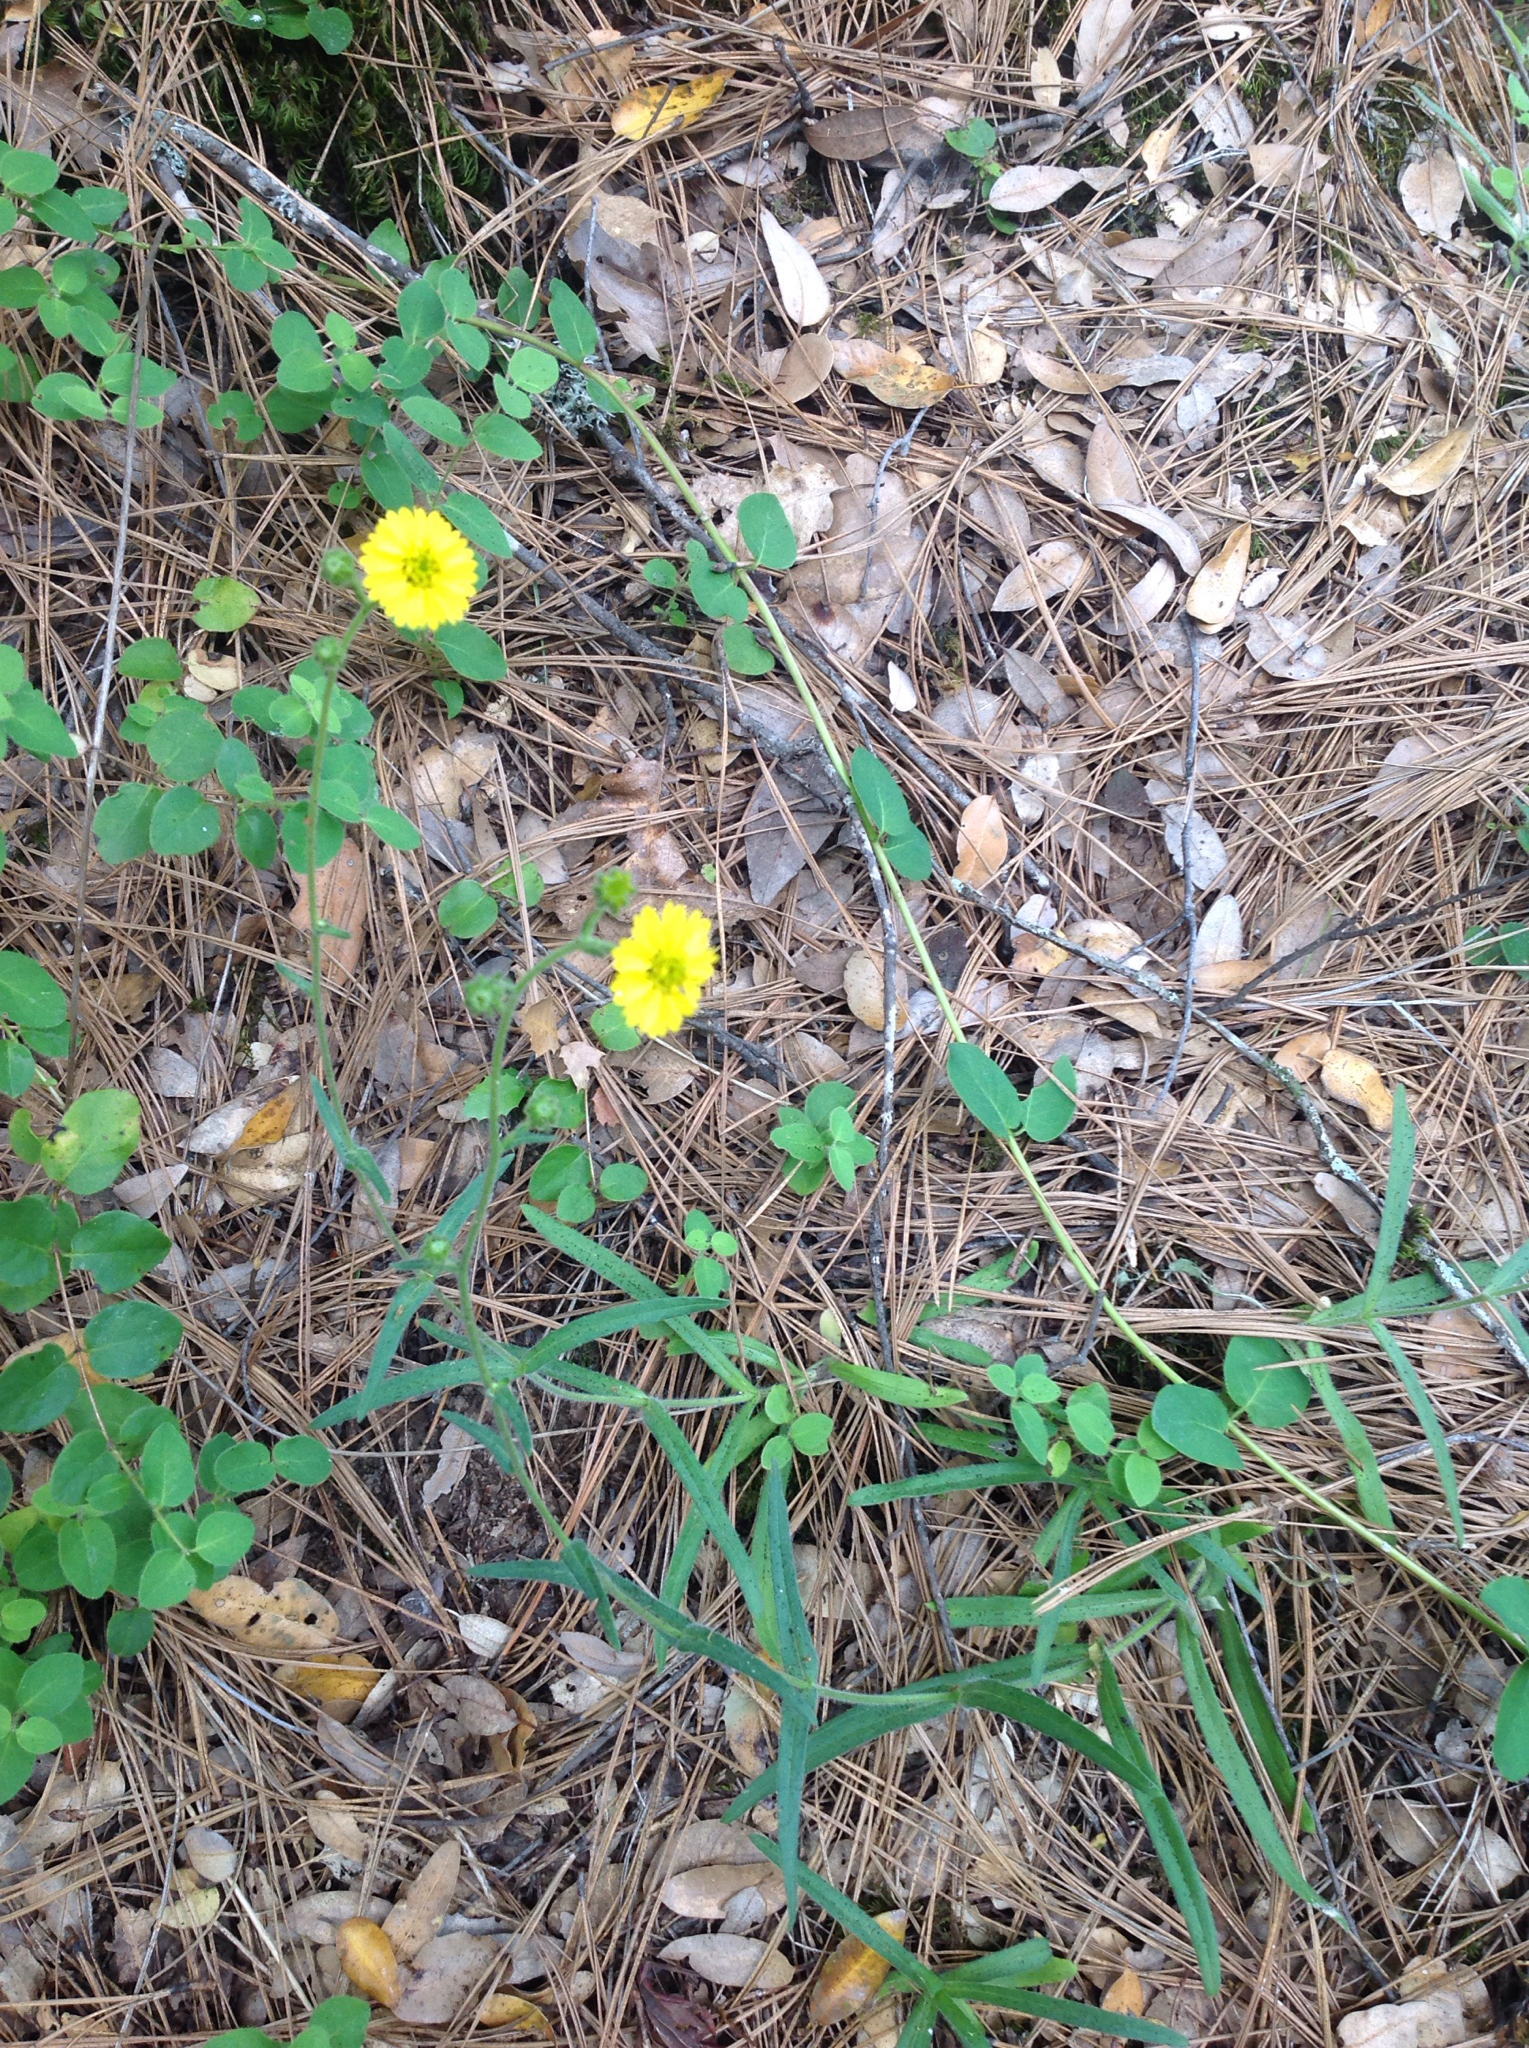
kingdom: Plantae
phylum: Tracheophyta
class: Magnoliopsida
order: Asterales
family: Asteraceae
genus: Anisocarpus
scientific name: Anisocarpus madioides
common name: Woodland madia
